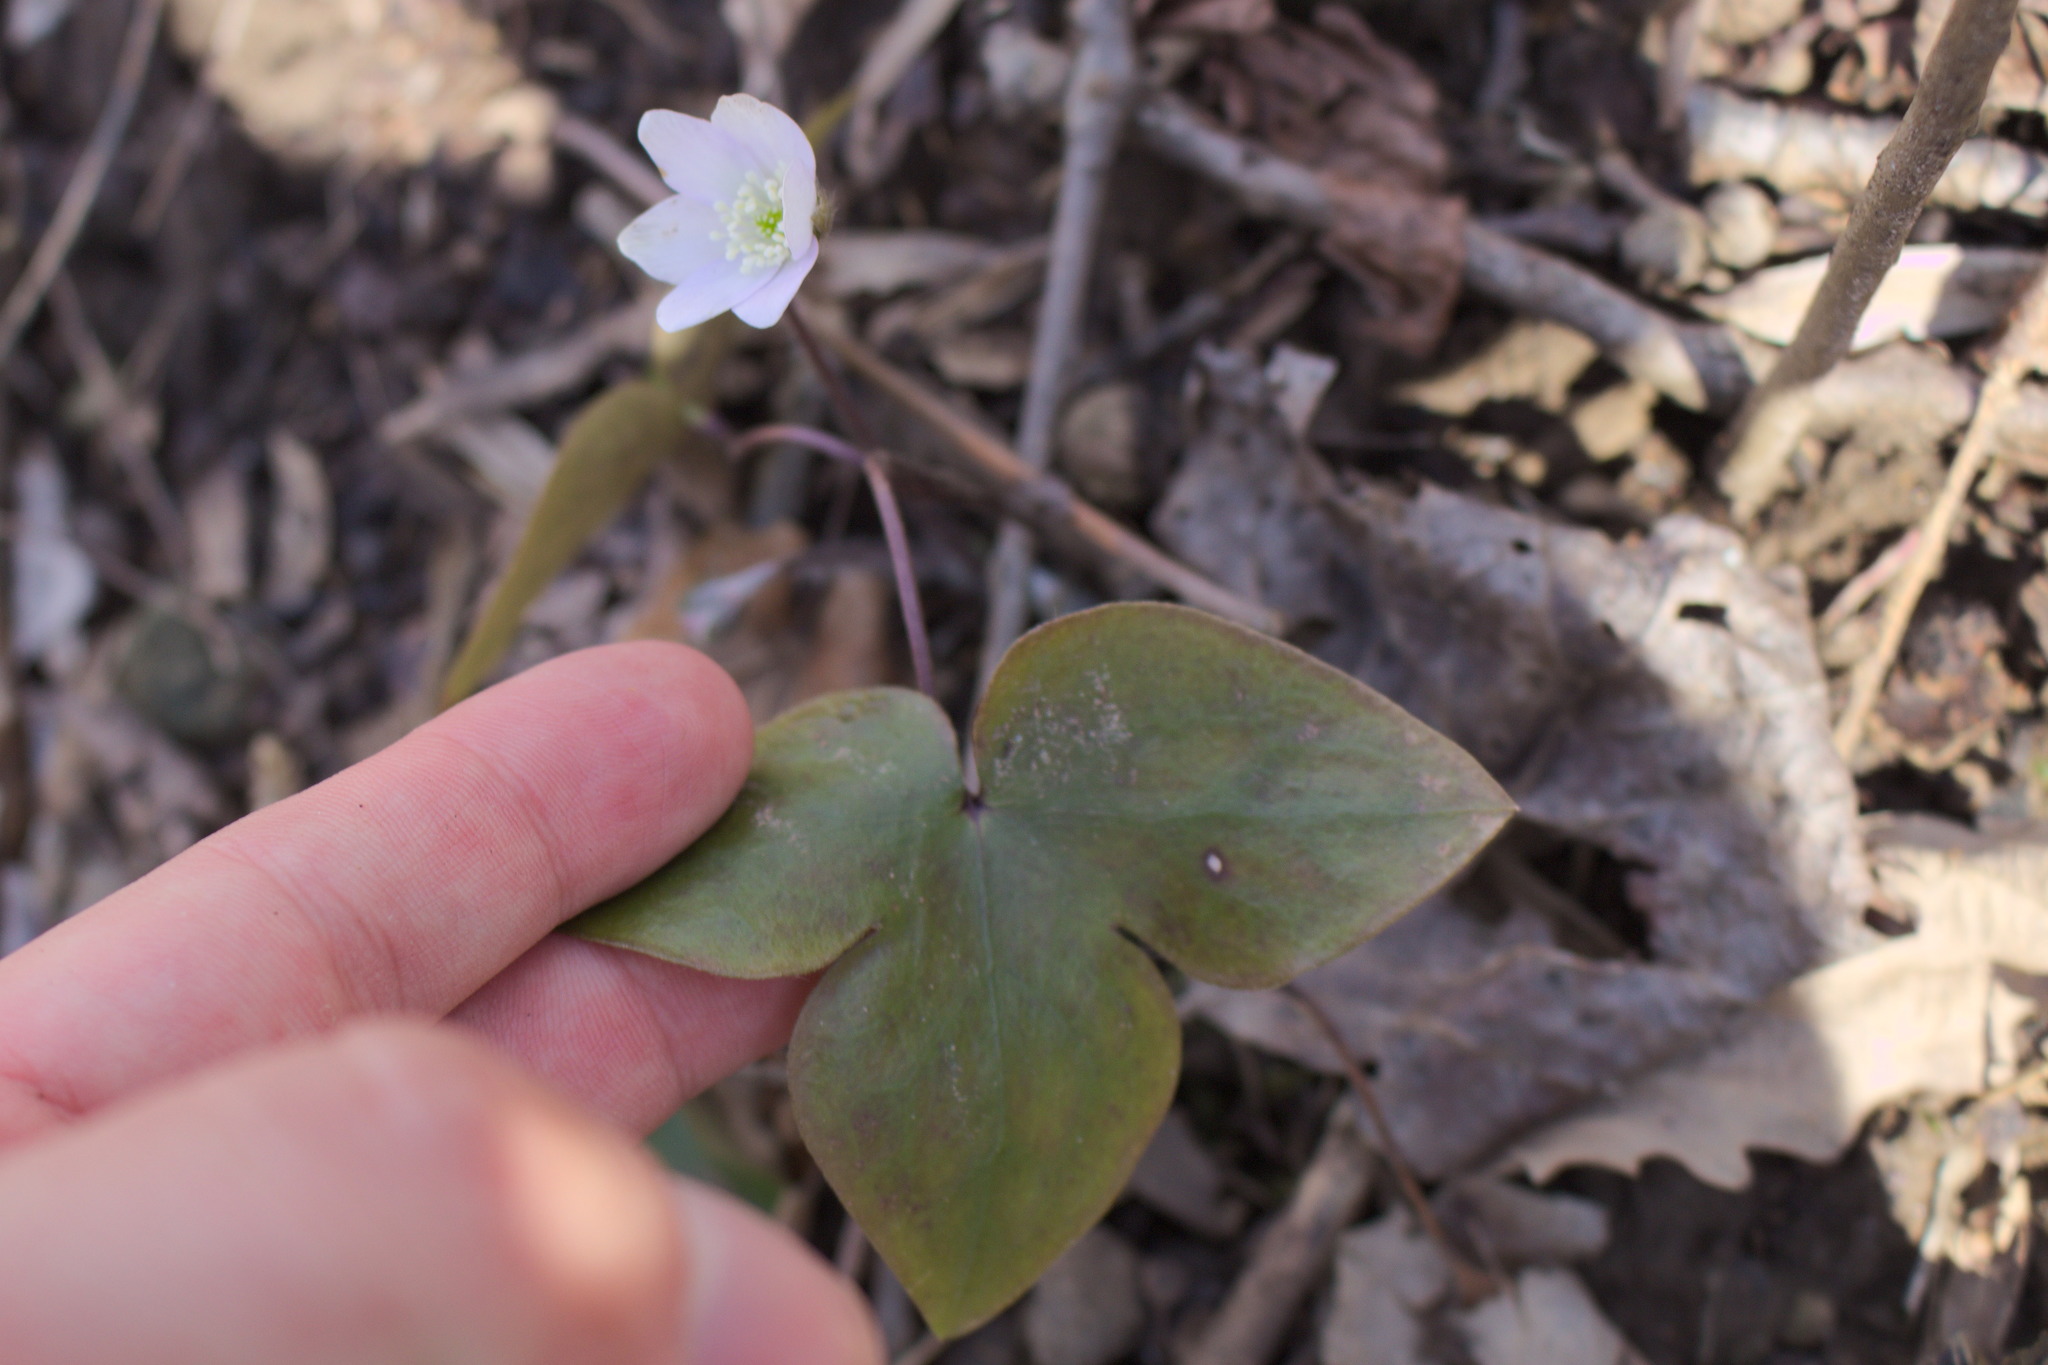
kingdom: Plantae
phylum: Tracheophyta
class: Magnoliopsida
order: Ranunculales
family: Ranunculaceae
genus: Hepatica
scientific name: Hepatica acutiloba
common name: Sharp-lobed hepatica
